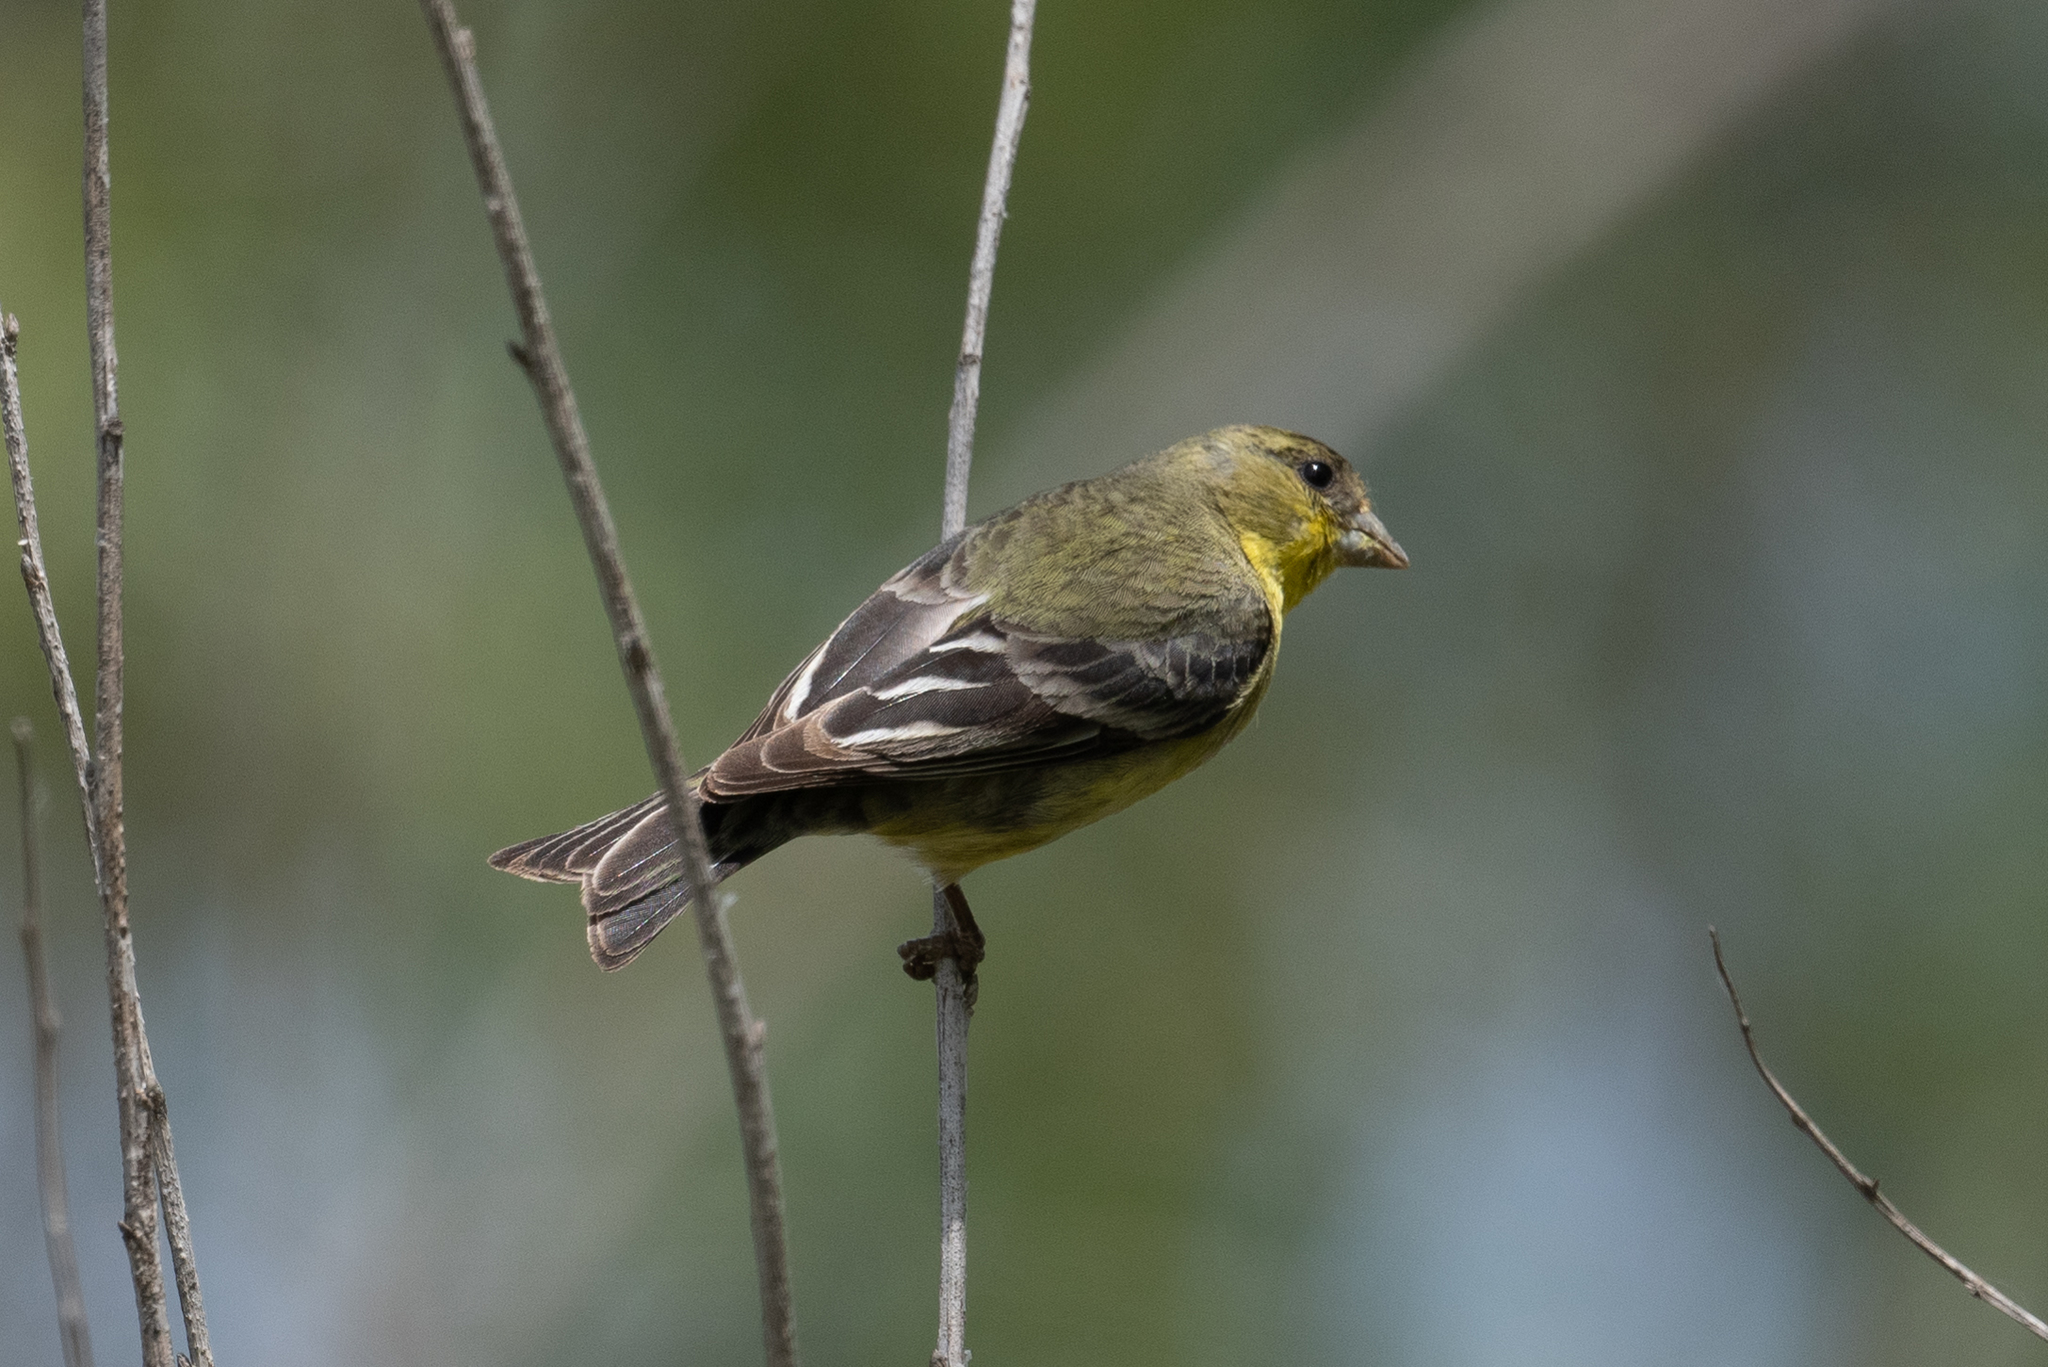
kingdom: Animalia
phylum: Chordata
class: Aves
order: Passeriformes
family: Fringillidae
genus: Spinus
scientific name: Spinus psaltria
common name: Lesser goldfinch
